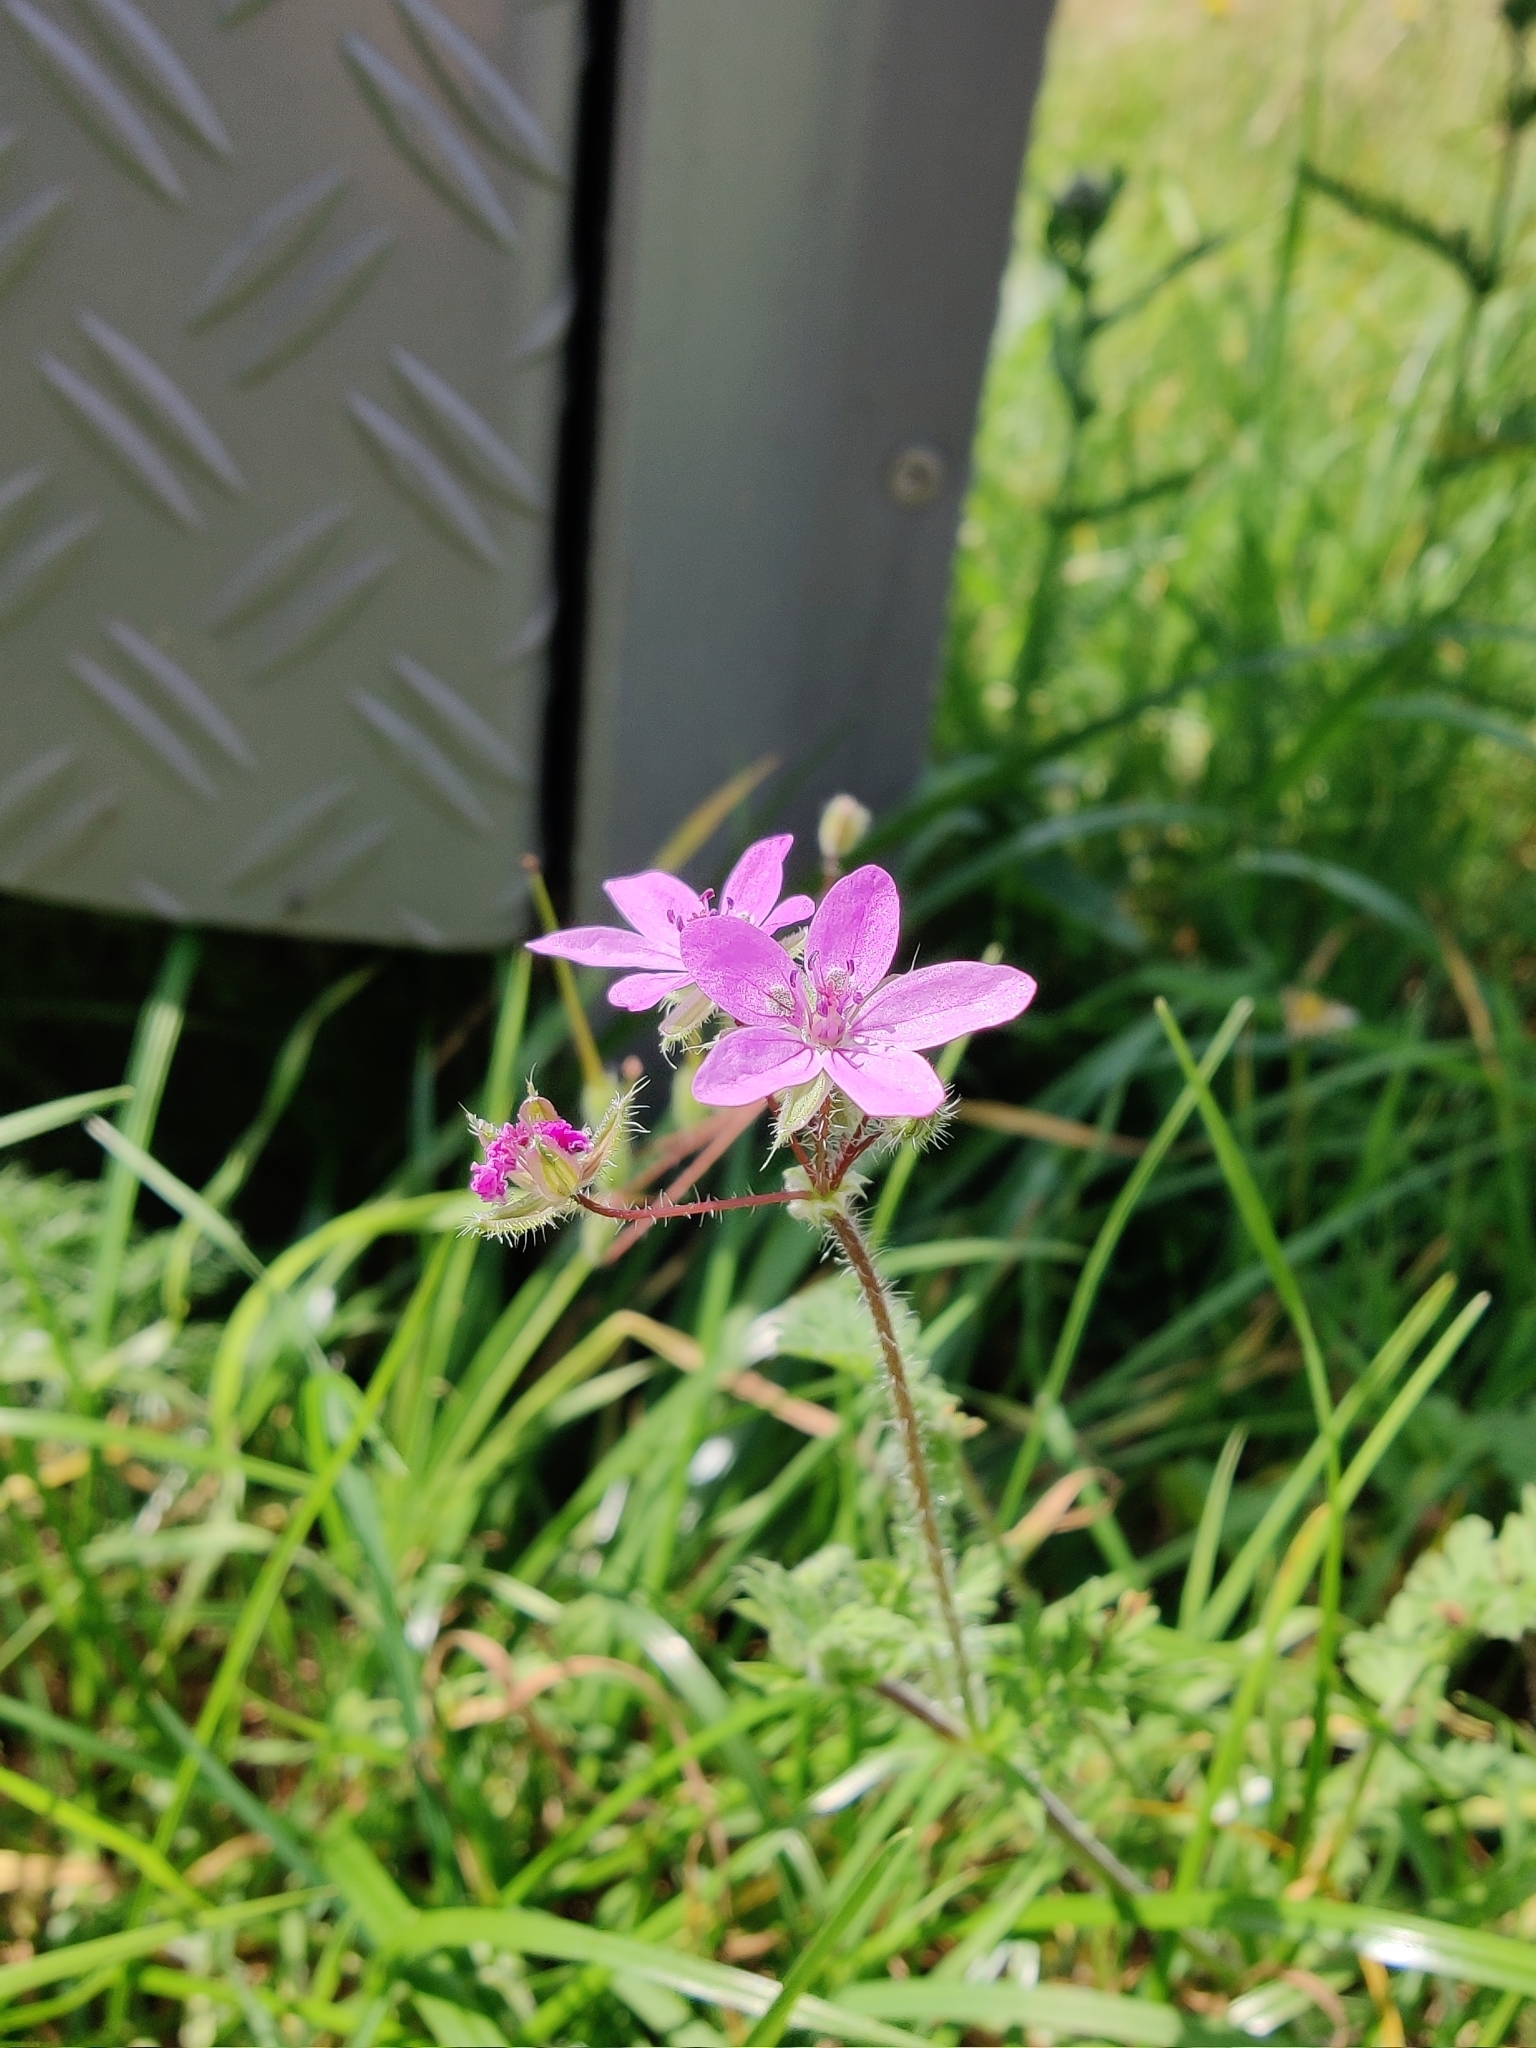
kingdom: Plantae
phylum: Tracheophyta
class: Magnoliopsida
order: Geraniales
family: Geraniaceae
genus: Erodium
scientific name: Erodium cicutarium
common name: Common stork's-bill
